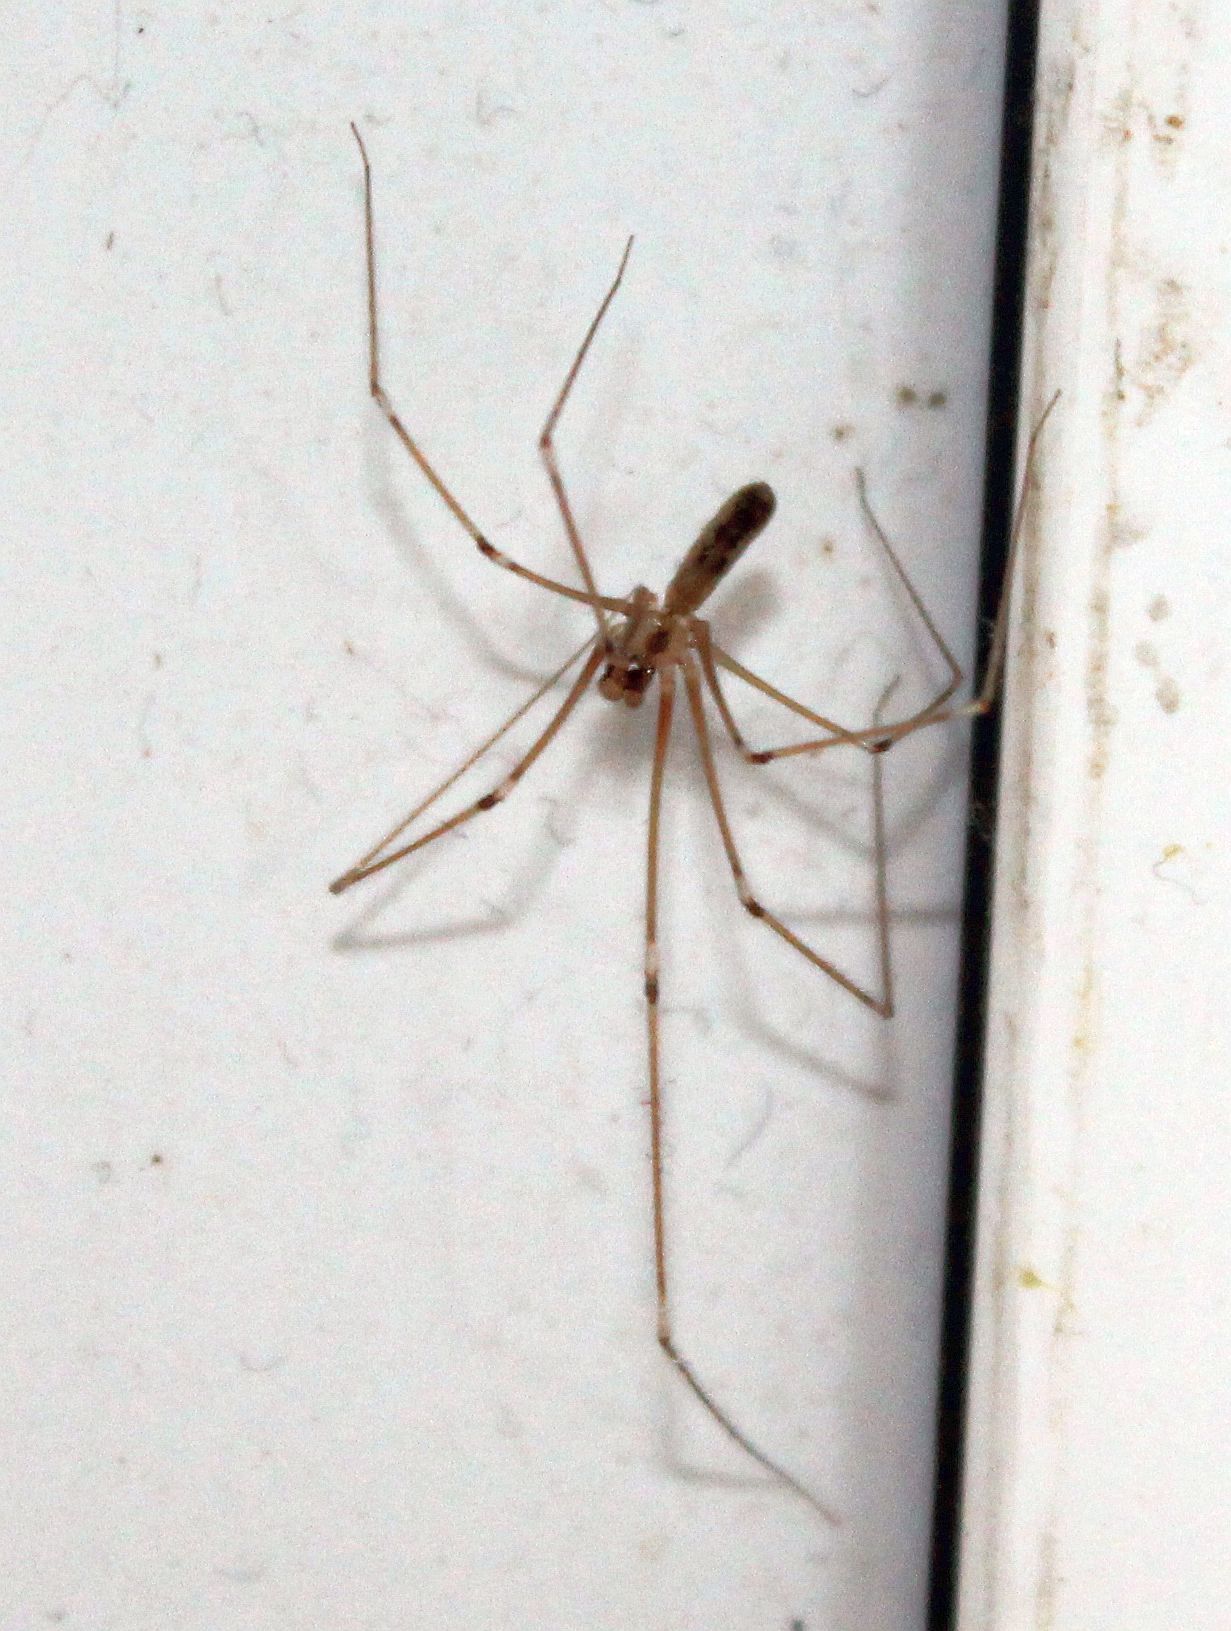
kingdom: Animalia
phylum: Arthropoda
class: Arachnida
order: Araneae
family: Pholcidae
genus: Pholcus
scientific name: Pholcus phalangioides
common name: Longbodied cellar spider
